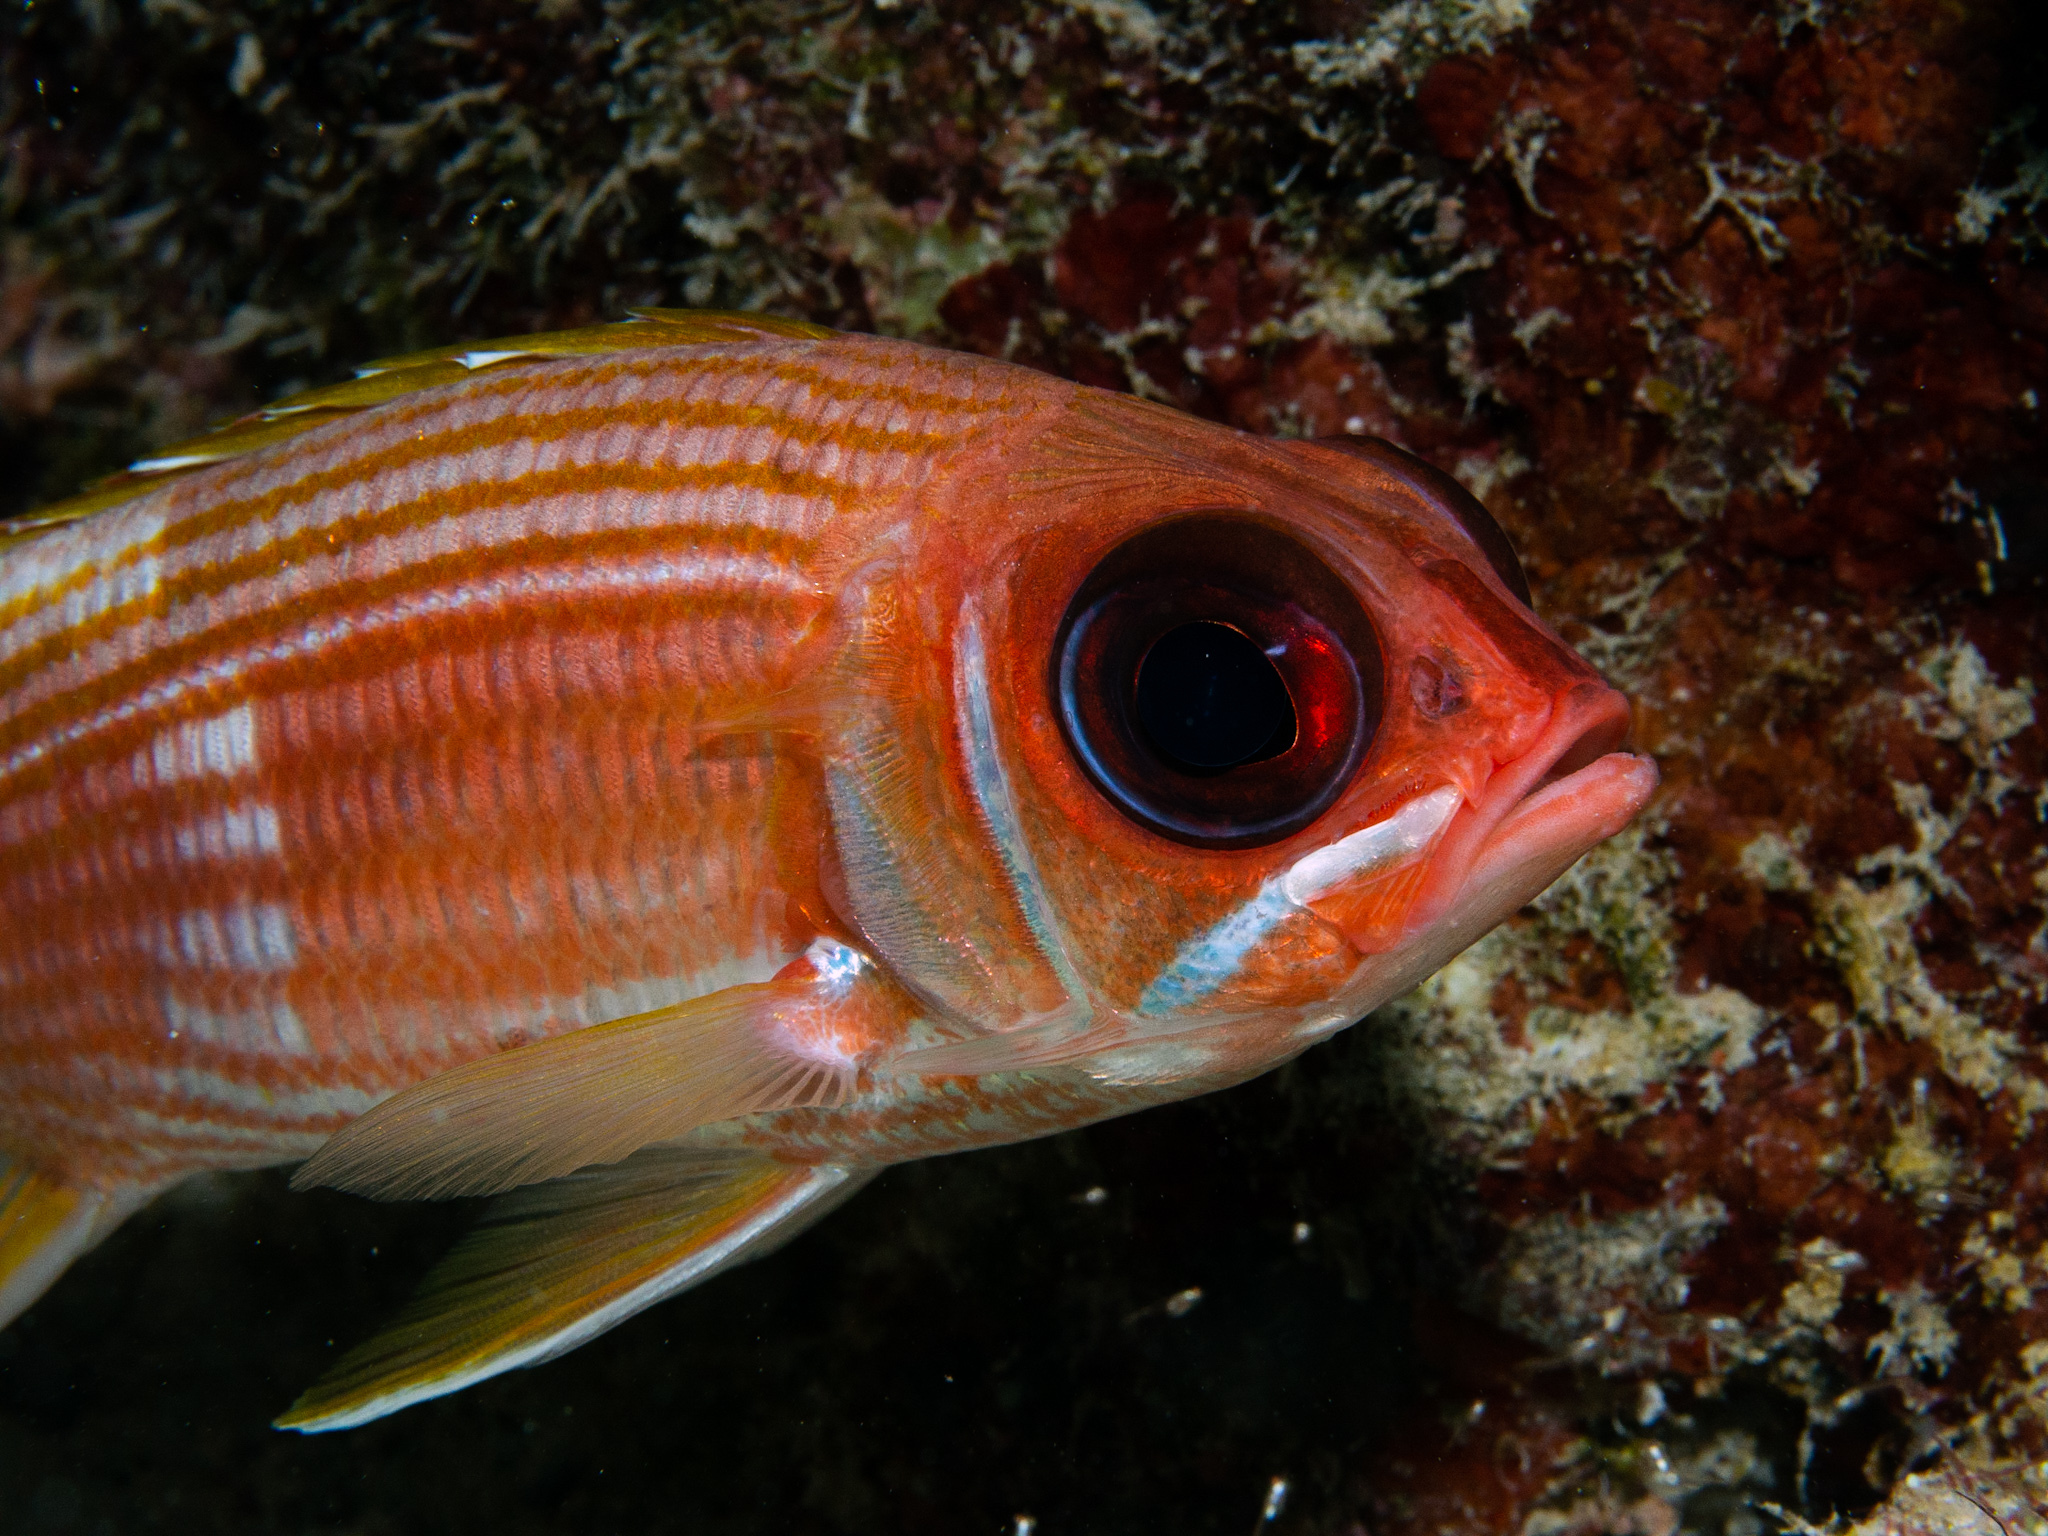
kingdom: Animalia
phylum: Chordata
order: Beryciformes
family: Holocentridae
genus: Holocentrus
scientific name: Holocentrus rufus
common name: Longspine squirrelfish
